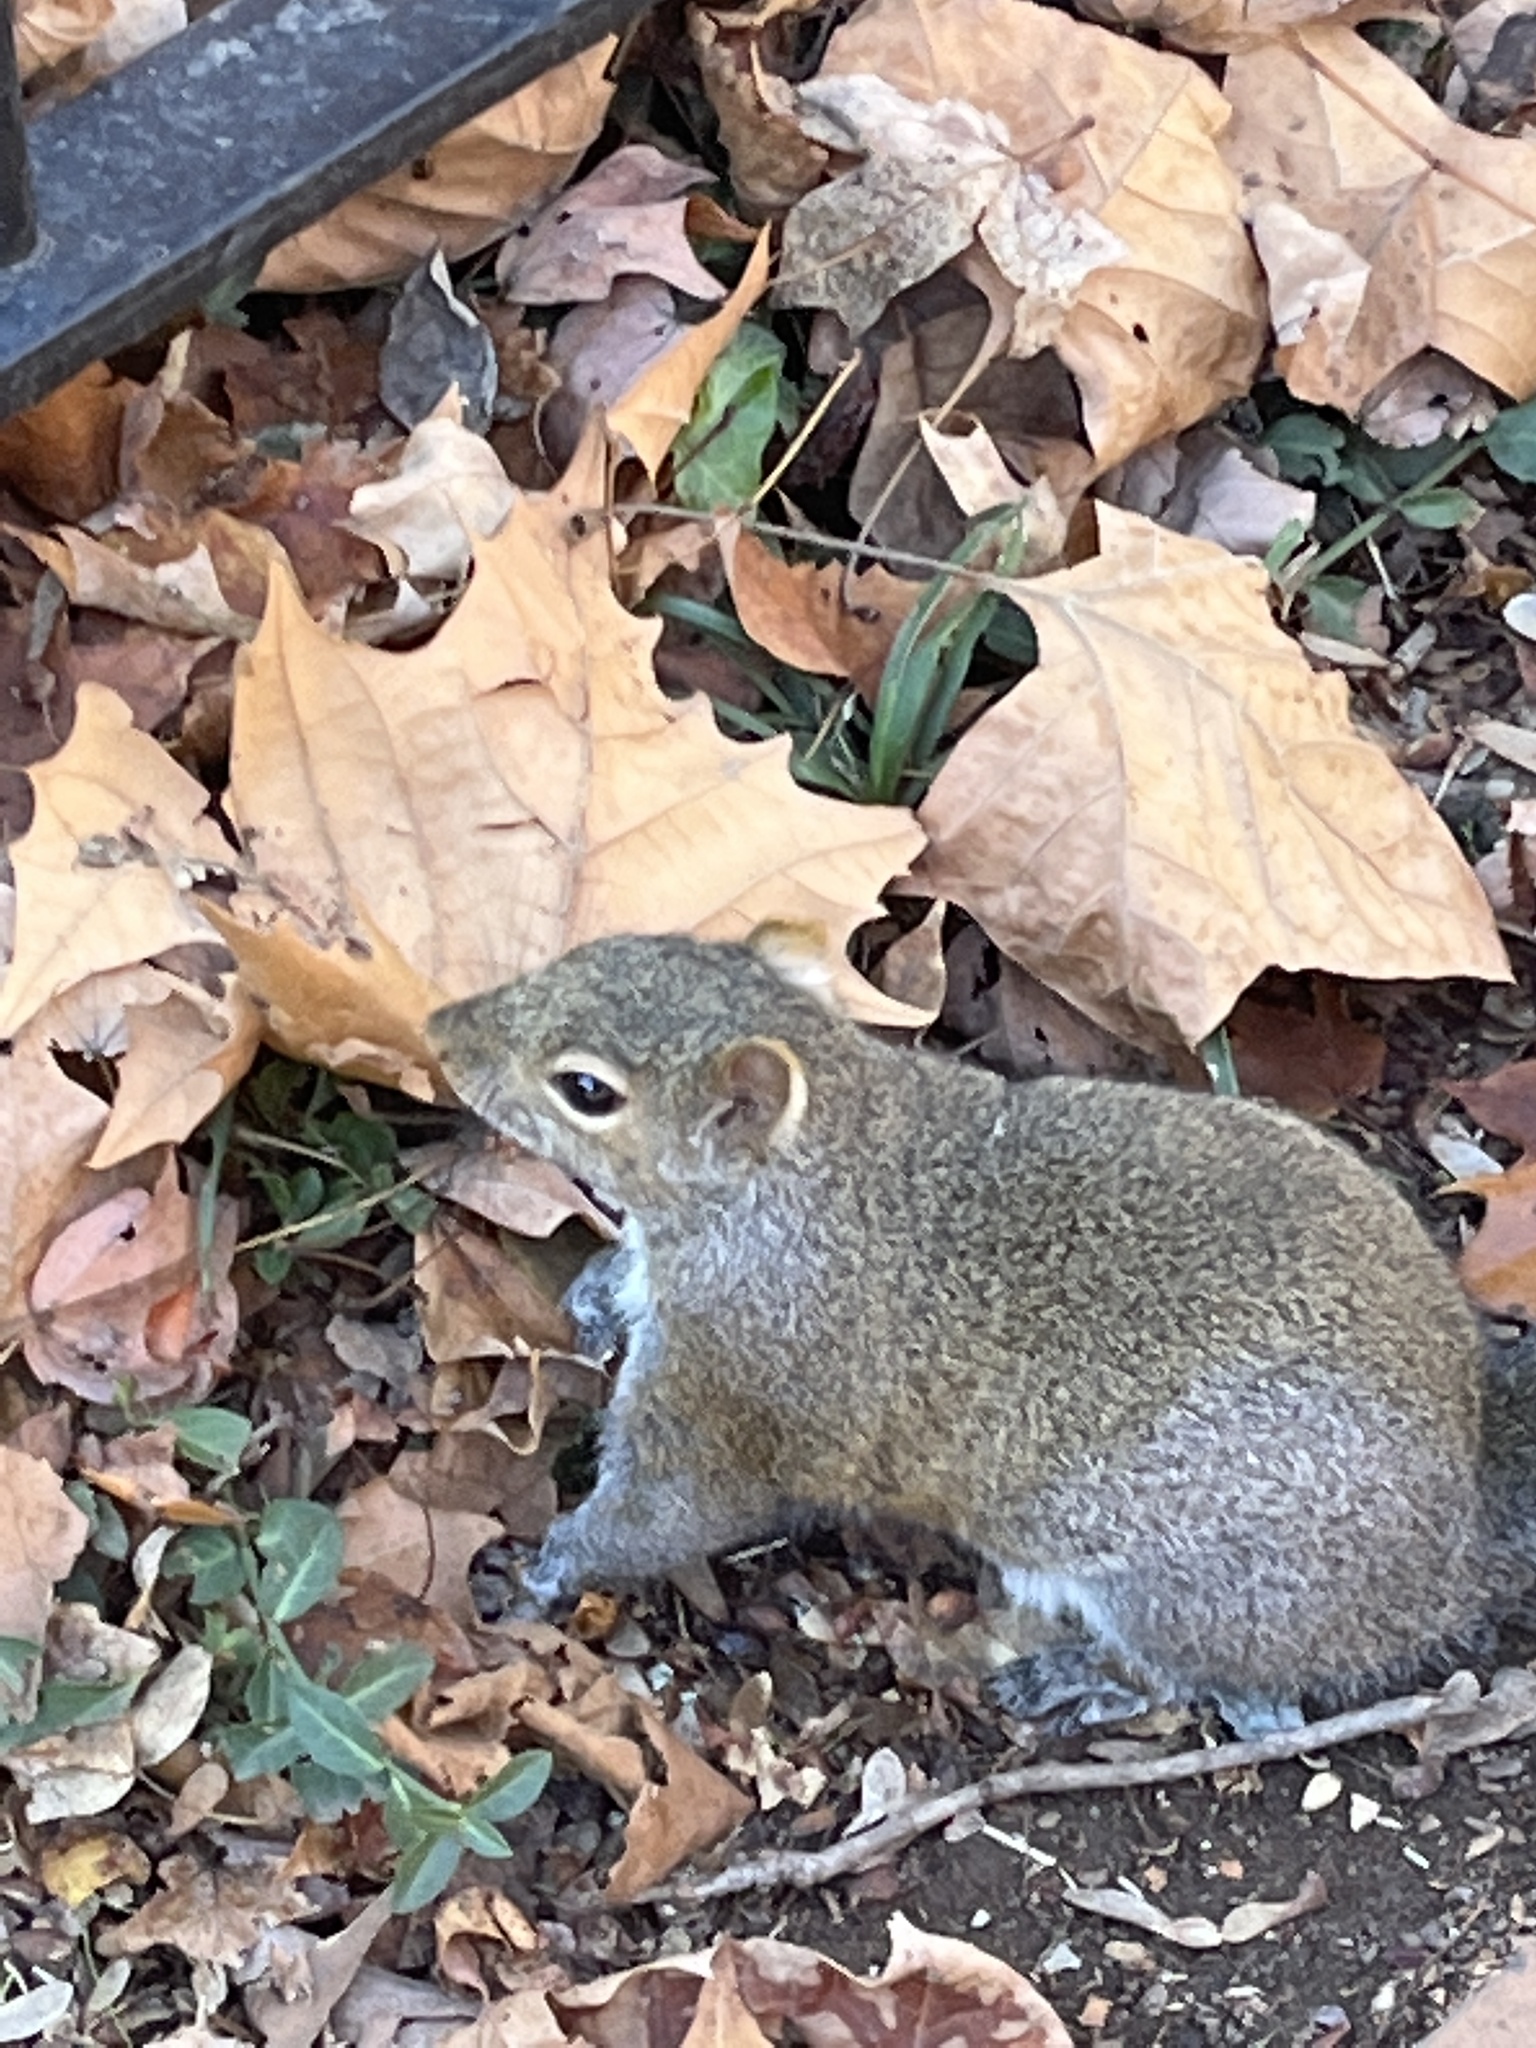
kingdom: Animalia
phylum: Chordata
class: Mammalia
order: Rodentia
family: Sciuridae
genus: Sciurus
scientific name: Sciurus carolinensis
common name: Eastern gray squirrel
